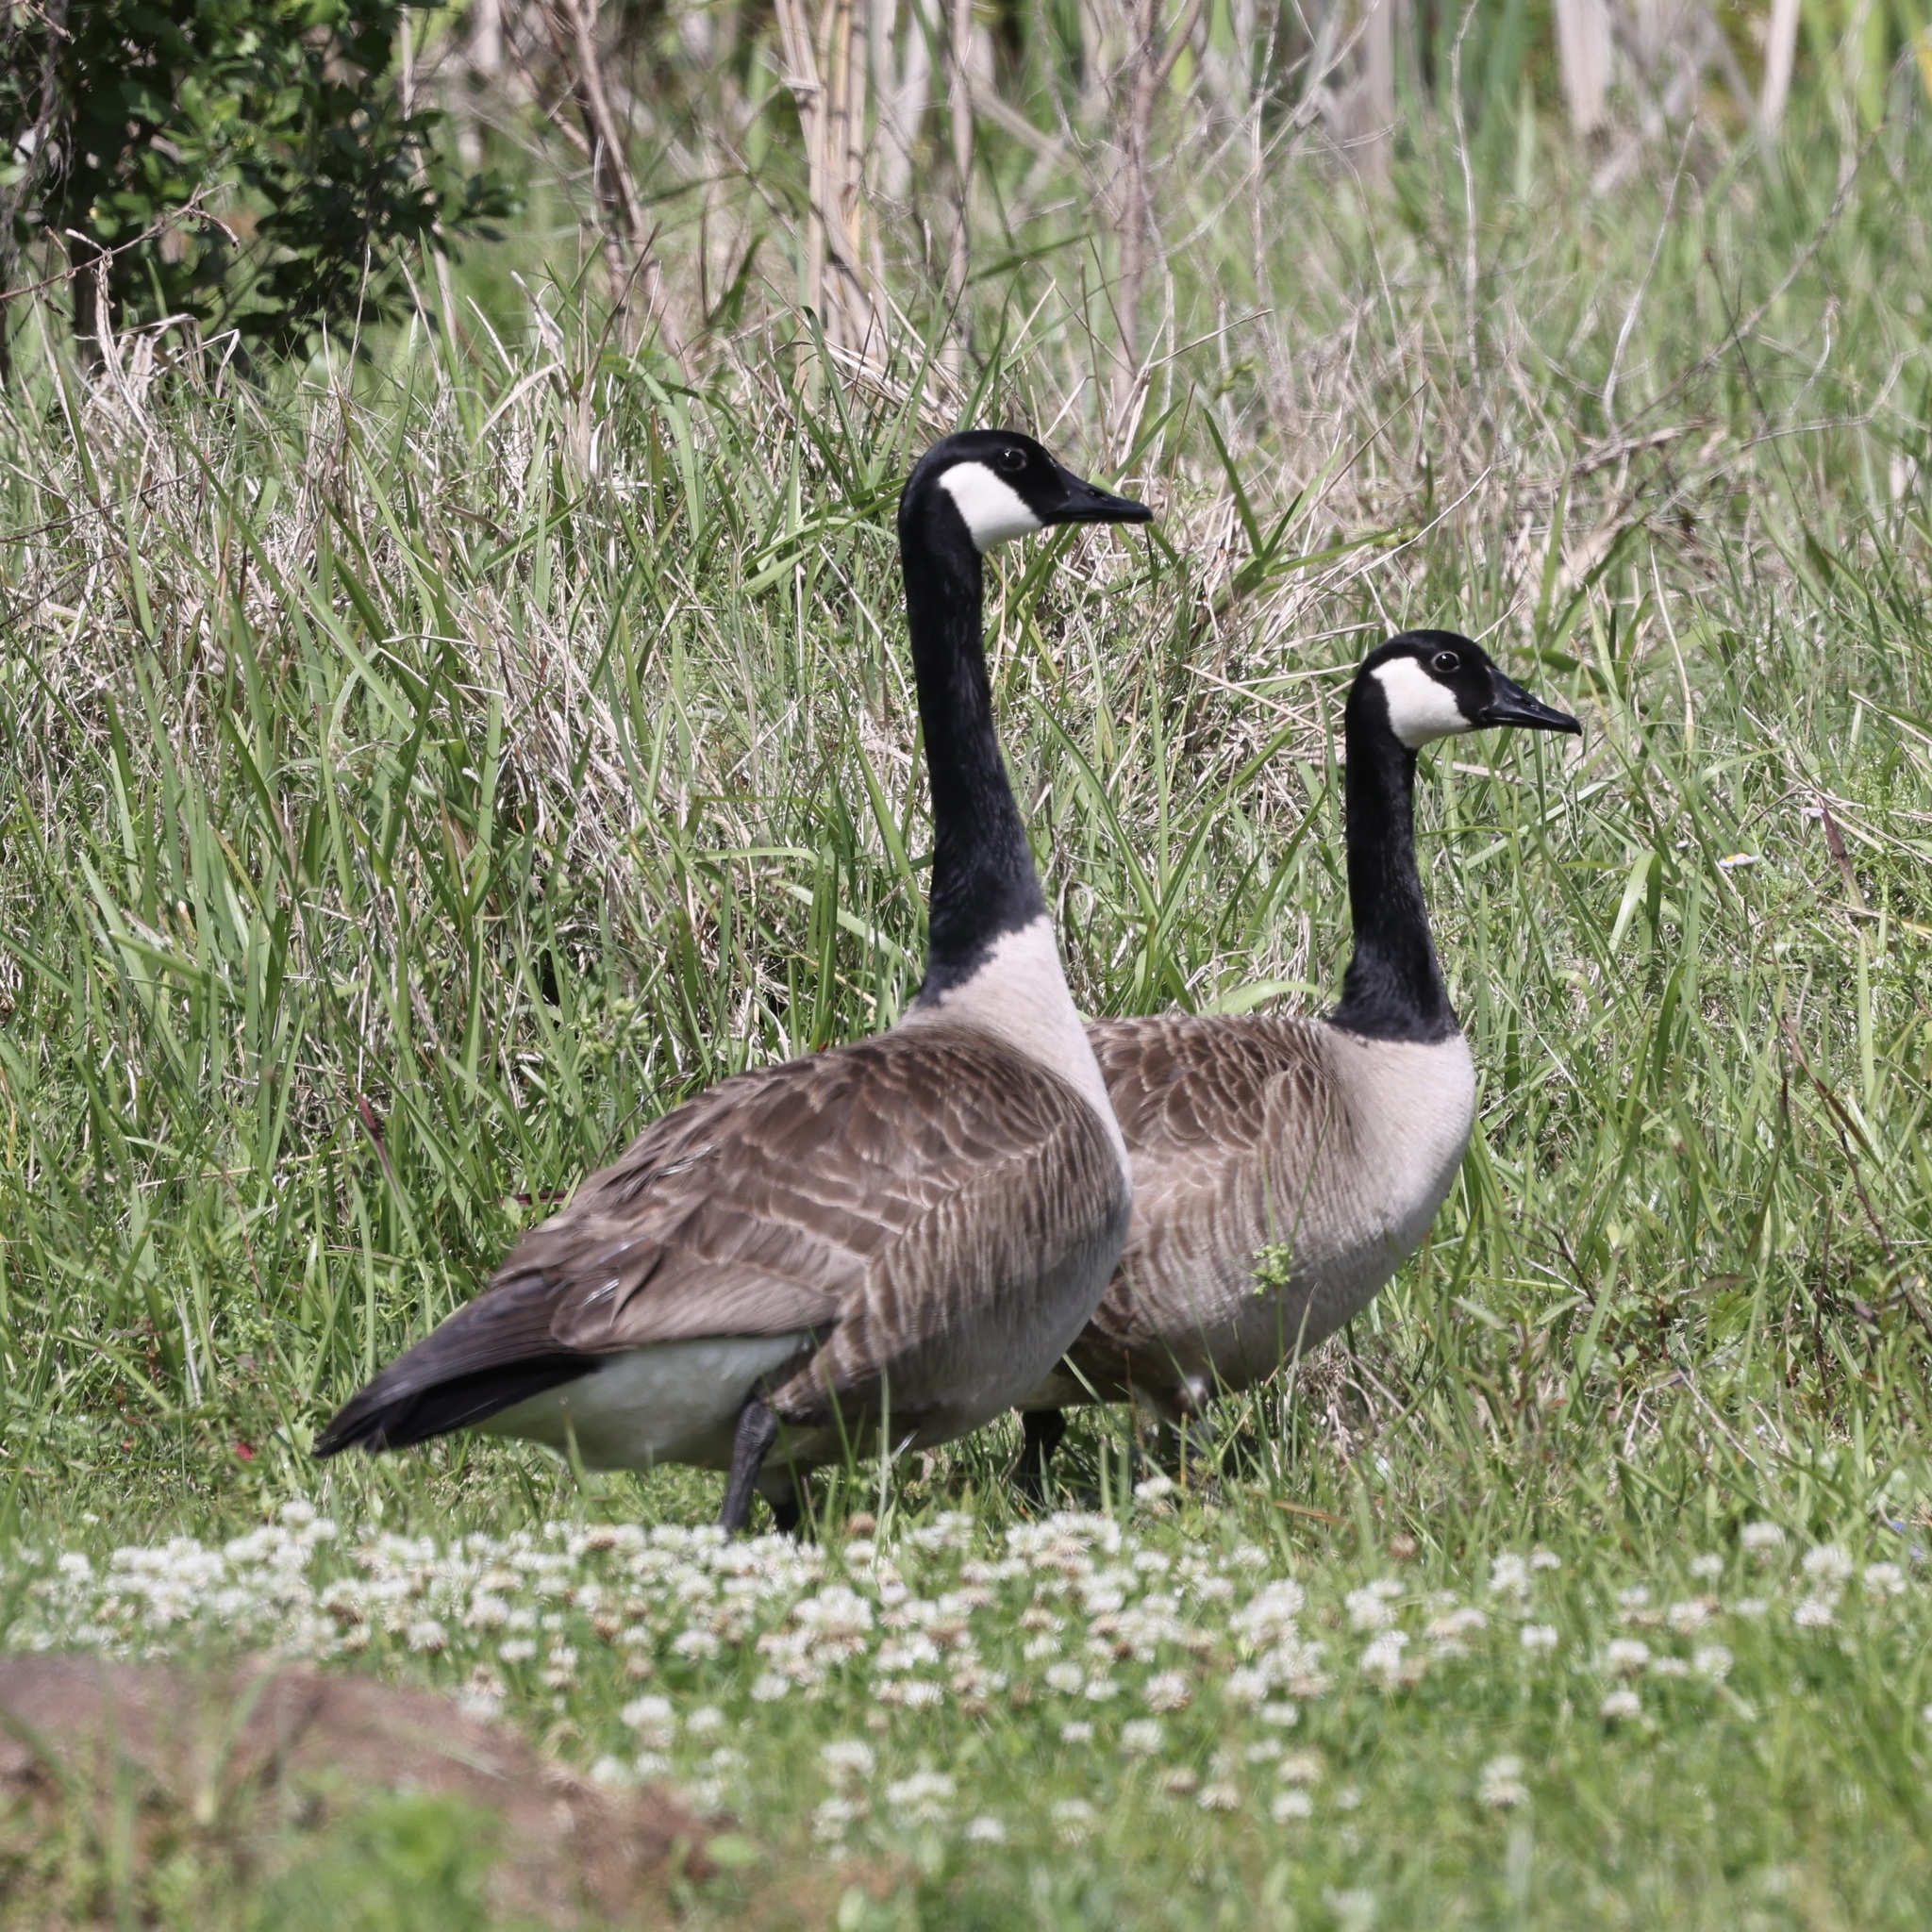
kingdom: Animalia
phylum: Chordata
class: Aves
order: Anseriformes
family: Anatidae
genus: Branta
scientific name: Branta canadensis
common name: Canada goose
